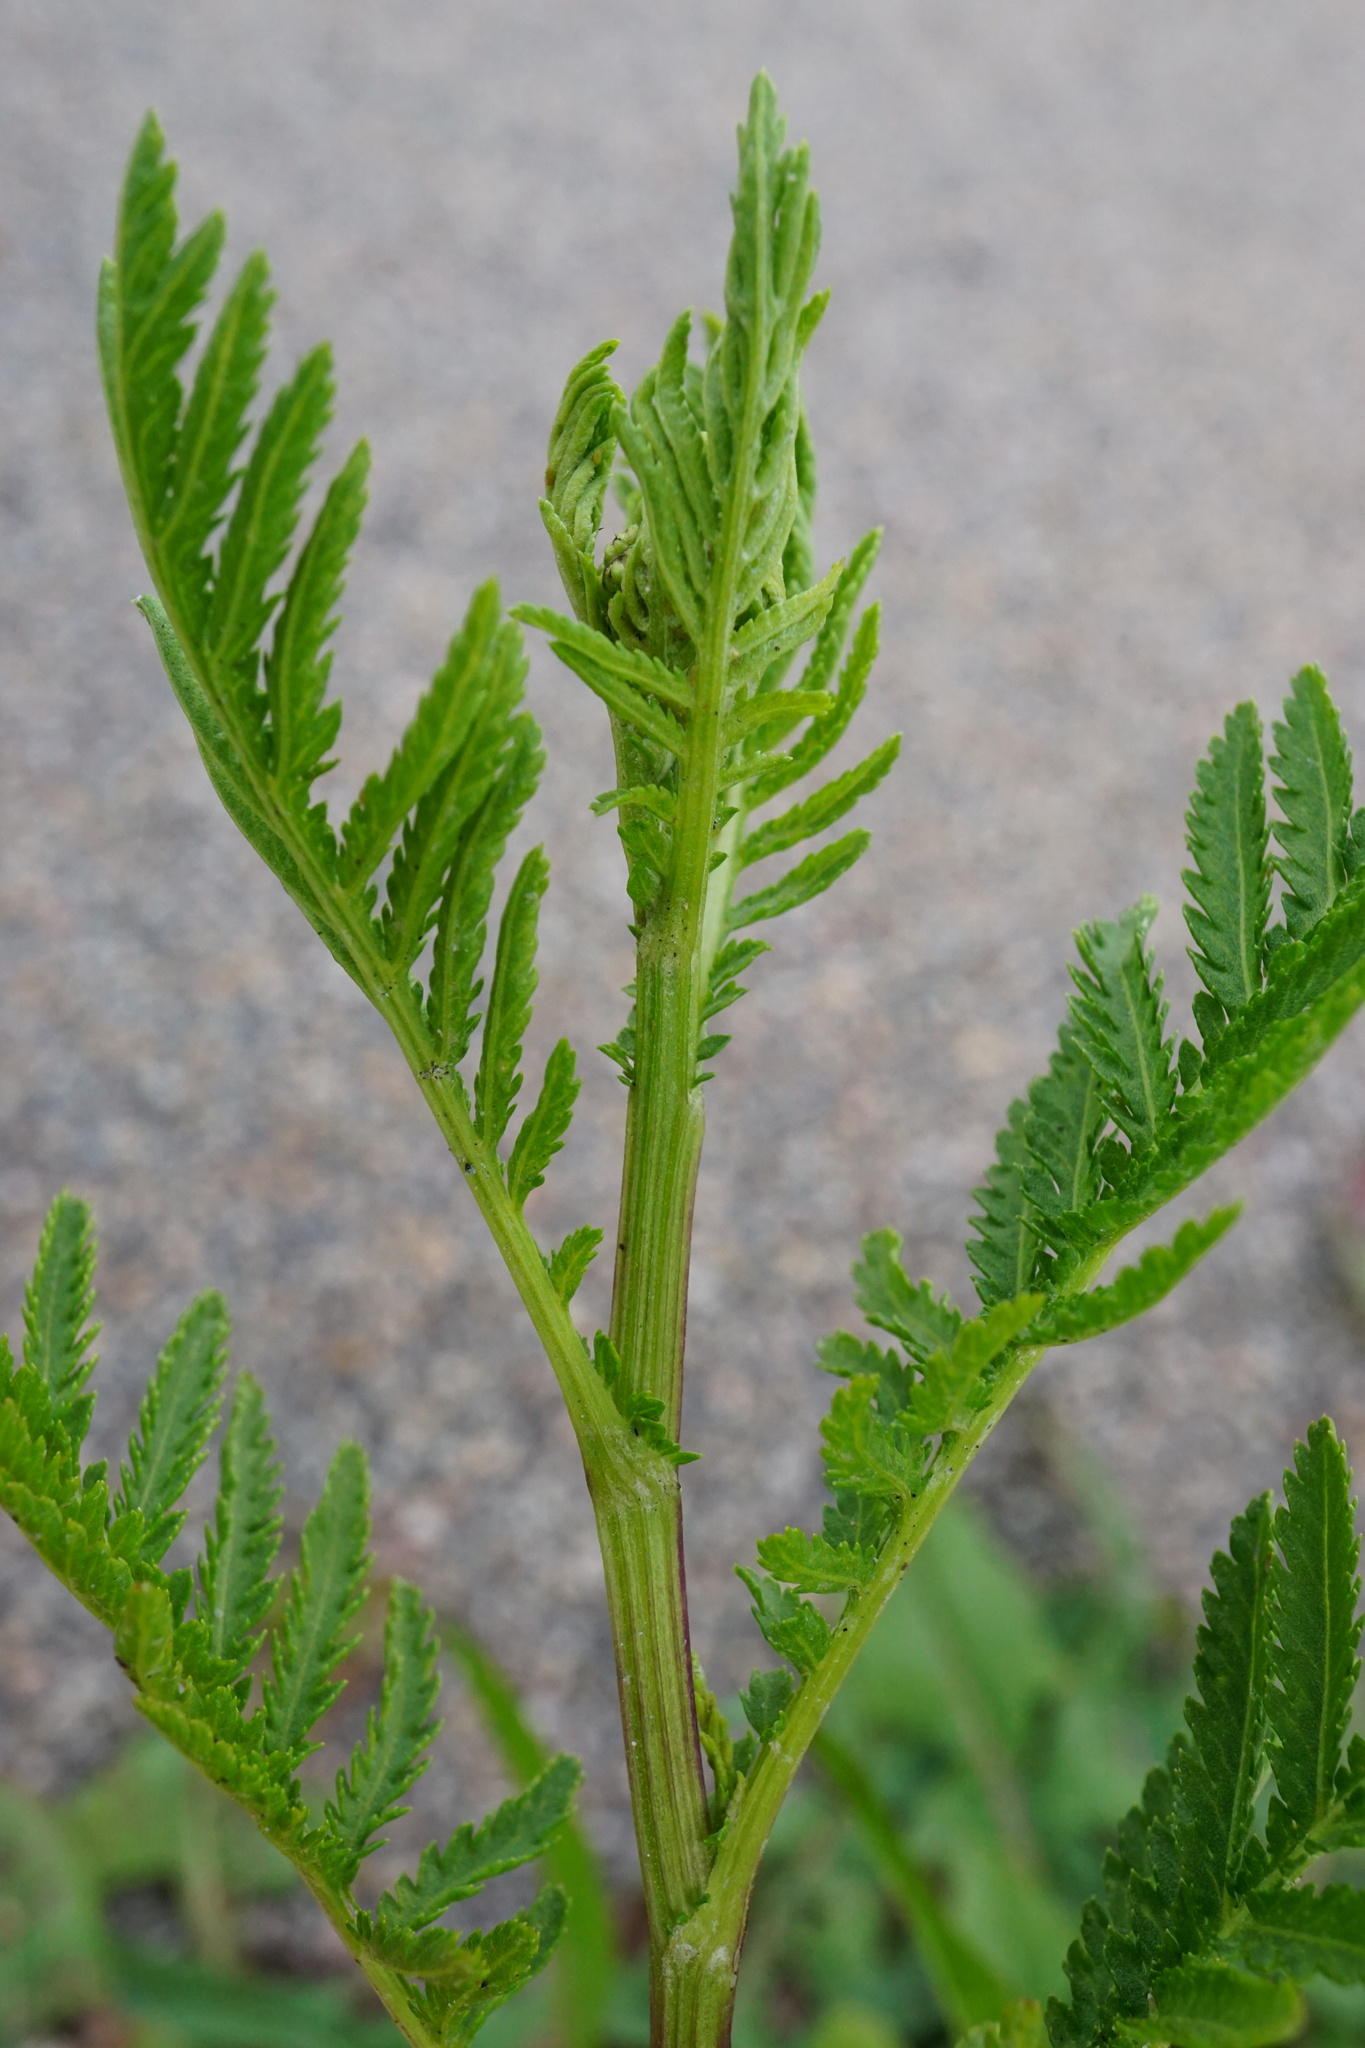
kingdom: Plantae
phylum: Tracheophyta
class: Magnoliopsida
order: Asterales
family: Asteraceae
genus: Tanacetum
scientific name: Tanacetum vulgare
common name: Common tansy
